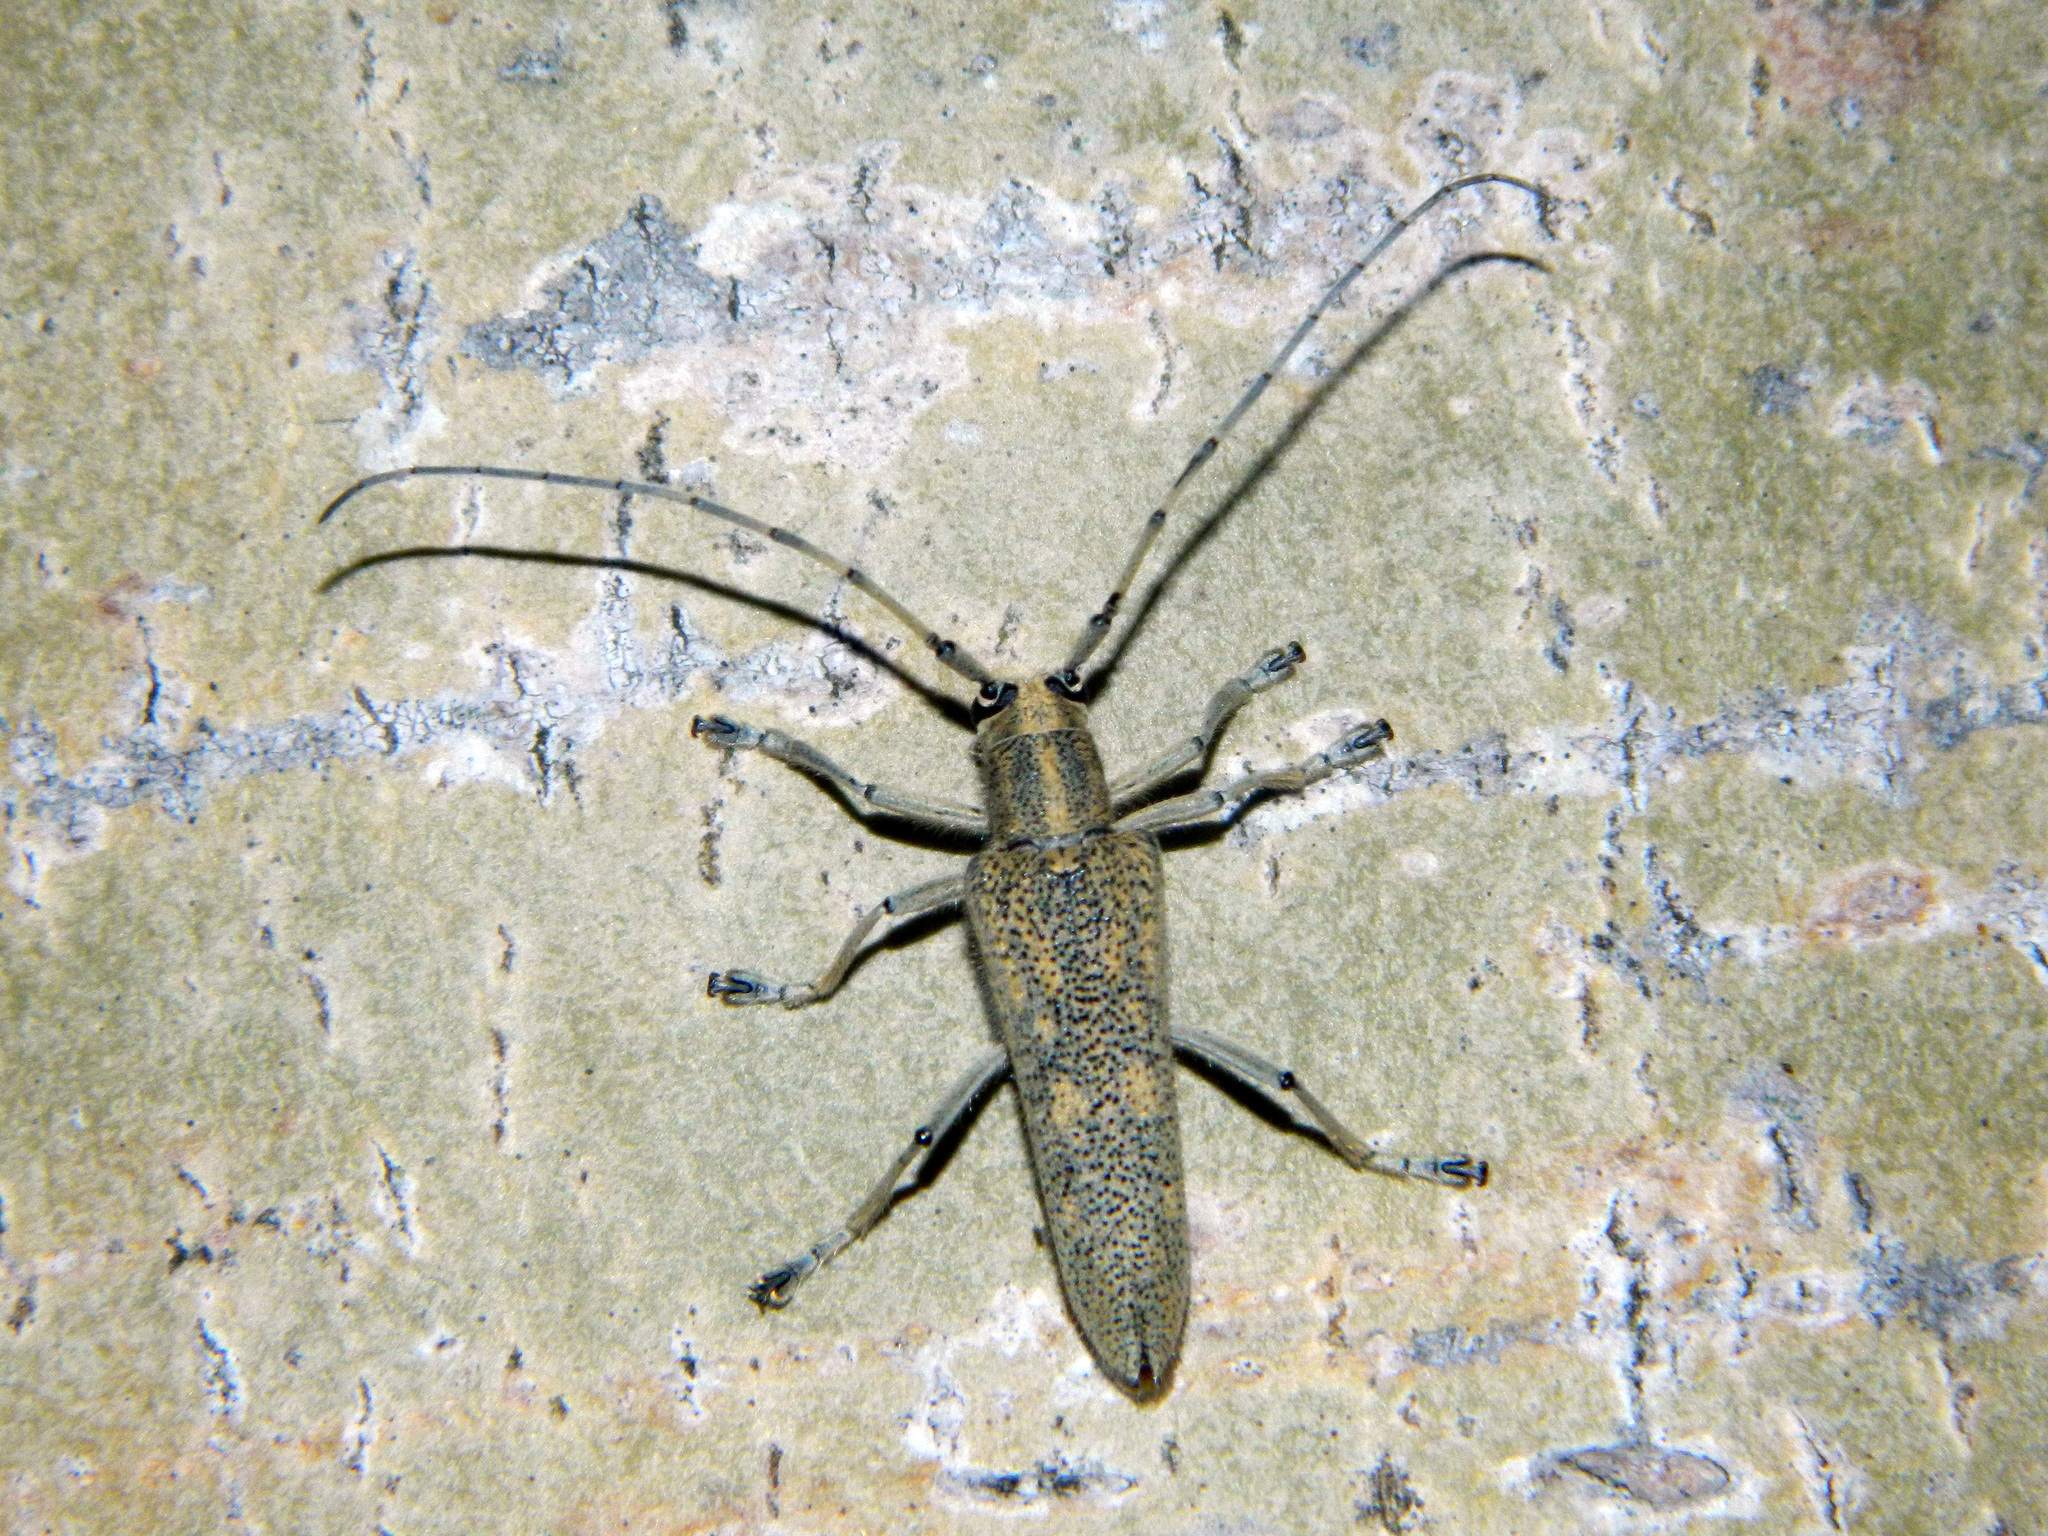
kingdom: Animalia
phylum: Arthropoda
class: Insecta
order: Coleoptera
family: Cerambycidae
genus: Saperda
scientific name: Saperda calcarata
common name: Poplar borer
